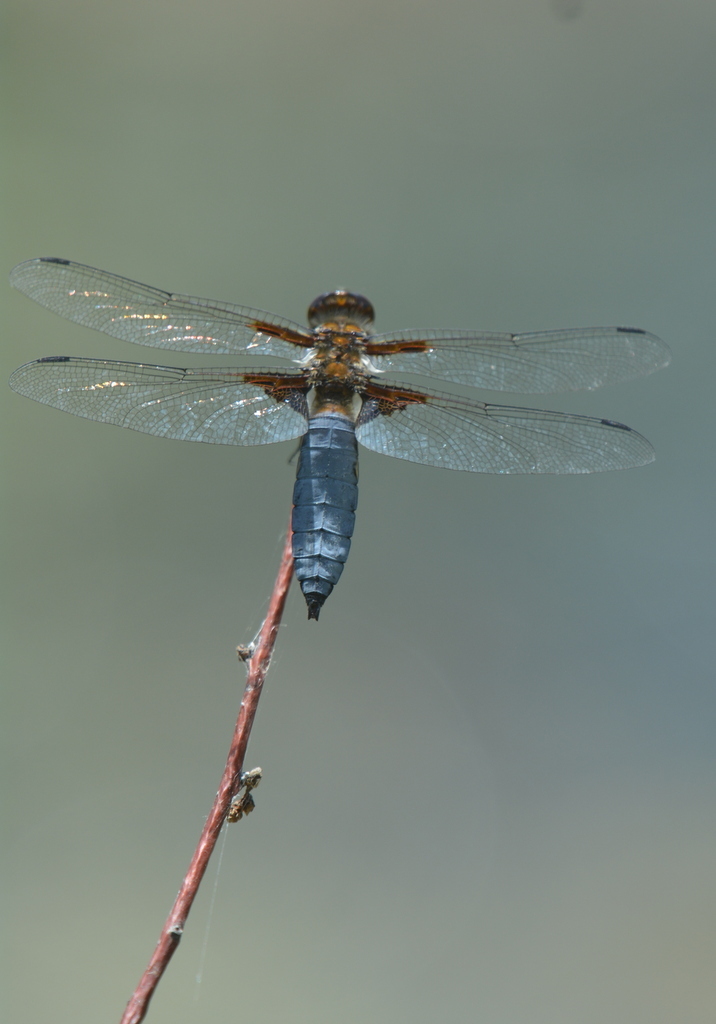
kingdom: Animalia
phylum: Arthropoda
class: Insecta
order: Odonata
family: Libellulidae
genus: Libellula
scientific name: Libellula depressa
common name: Broad-bodied chaser
